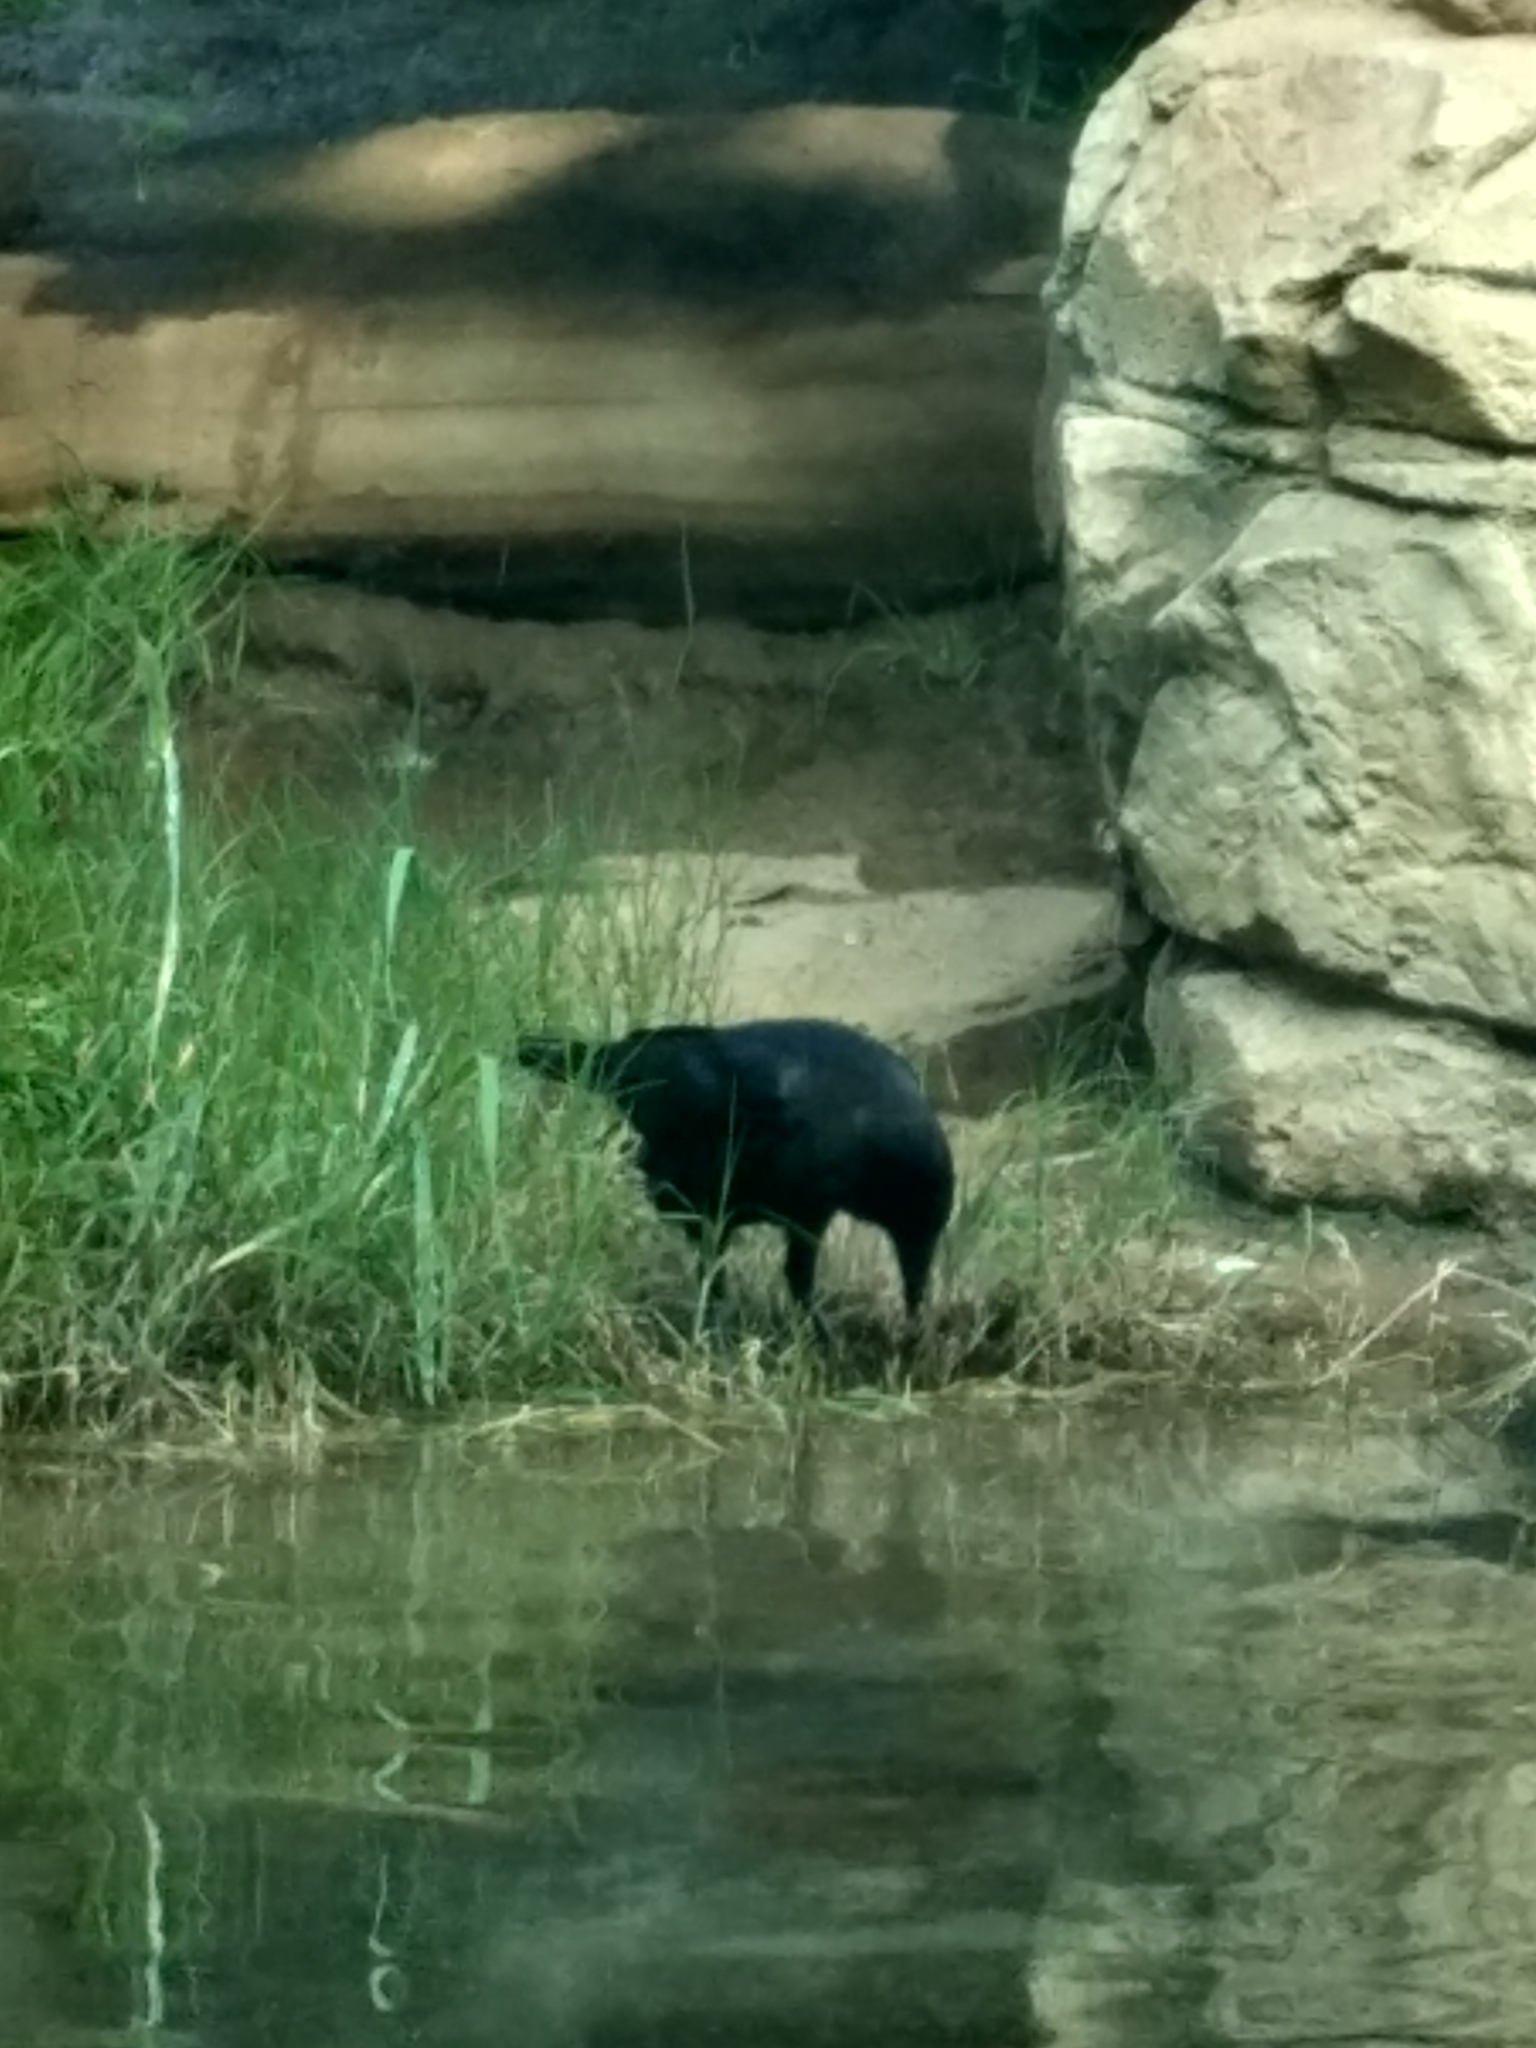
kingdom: Animalia
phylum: Chordata
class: Aves
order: Passeriformes
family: Corvidae
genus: Corvus
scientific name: Corvus brachyrhynchos
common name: American crow
